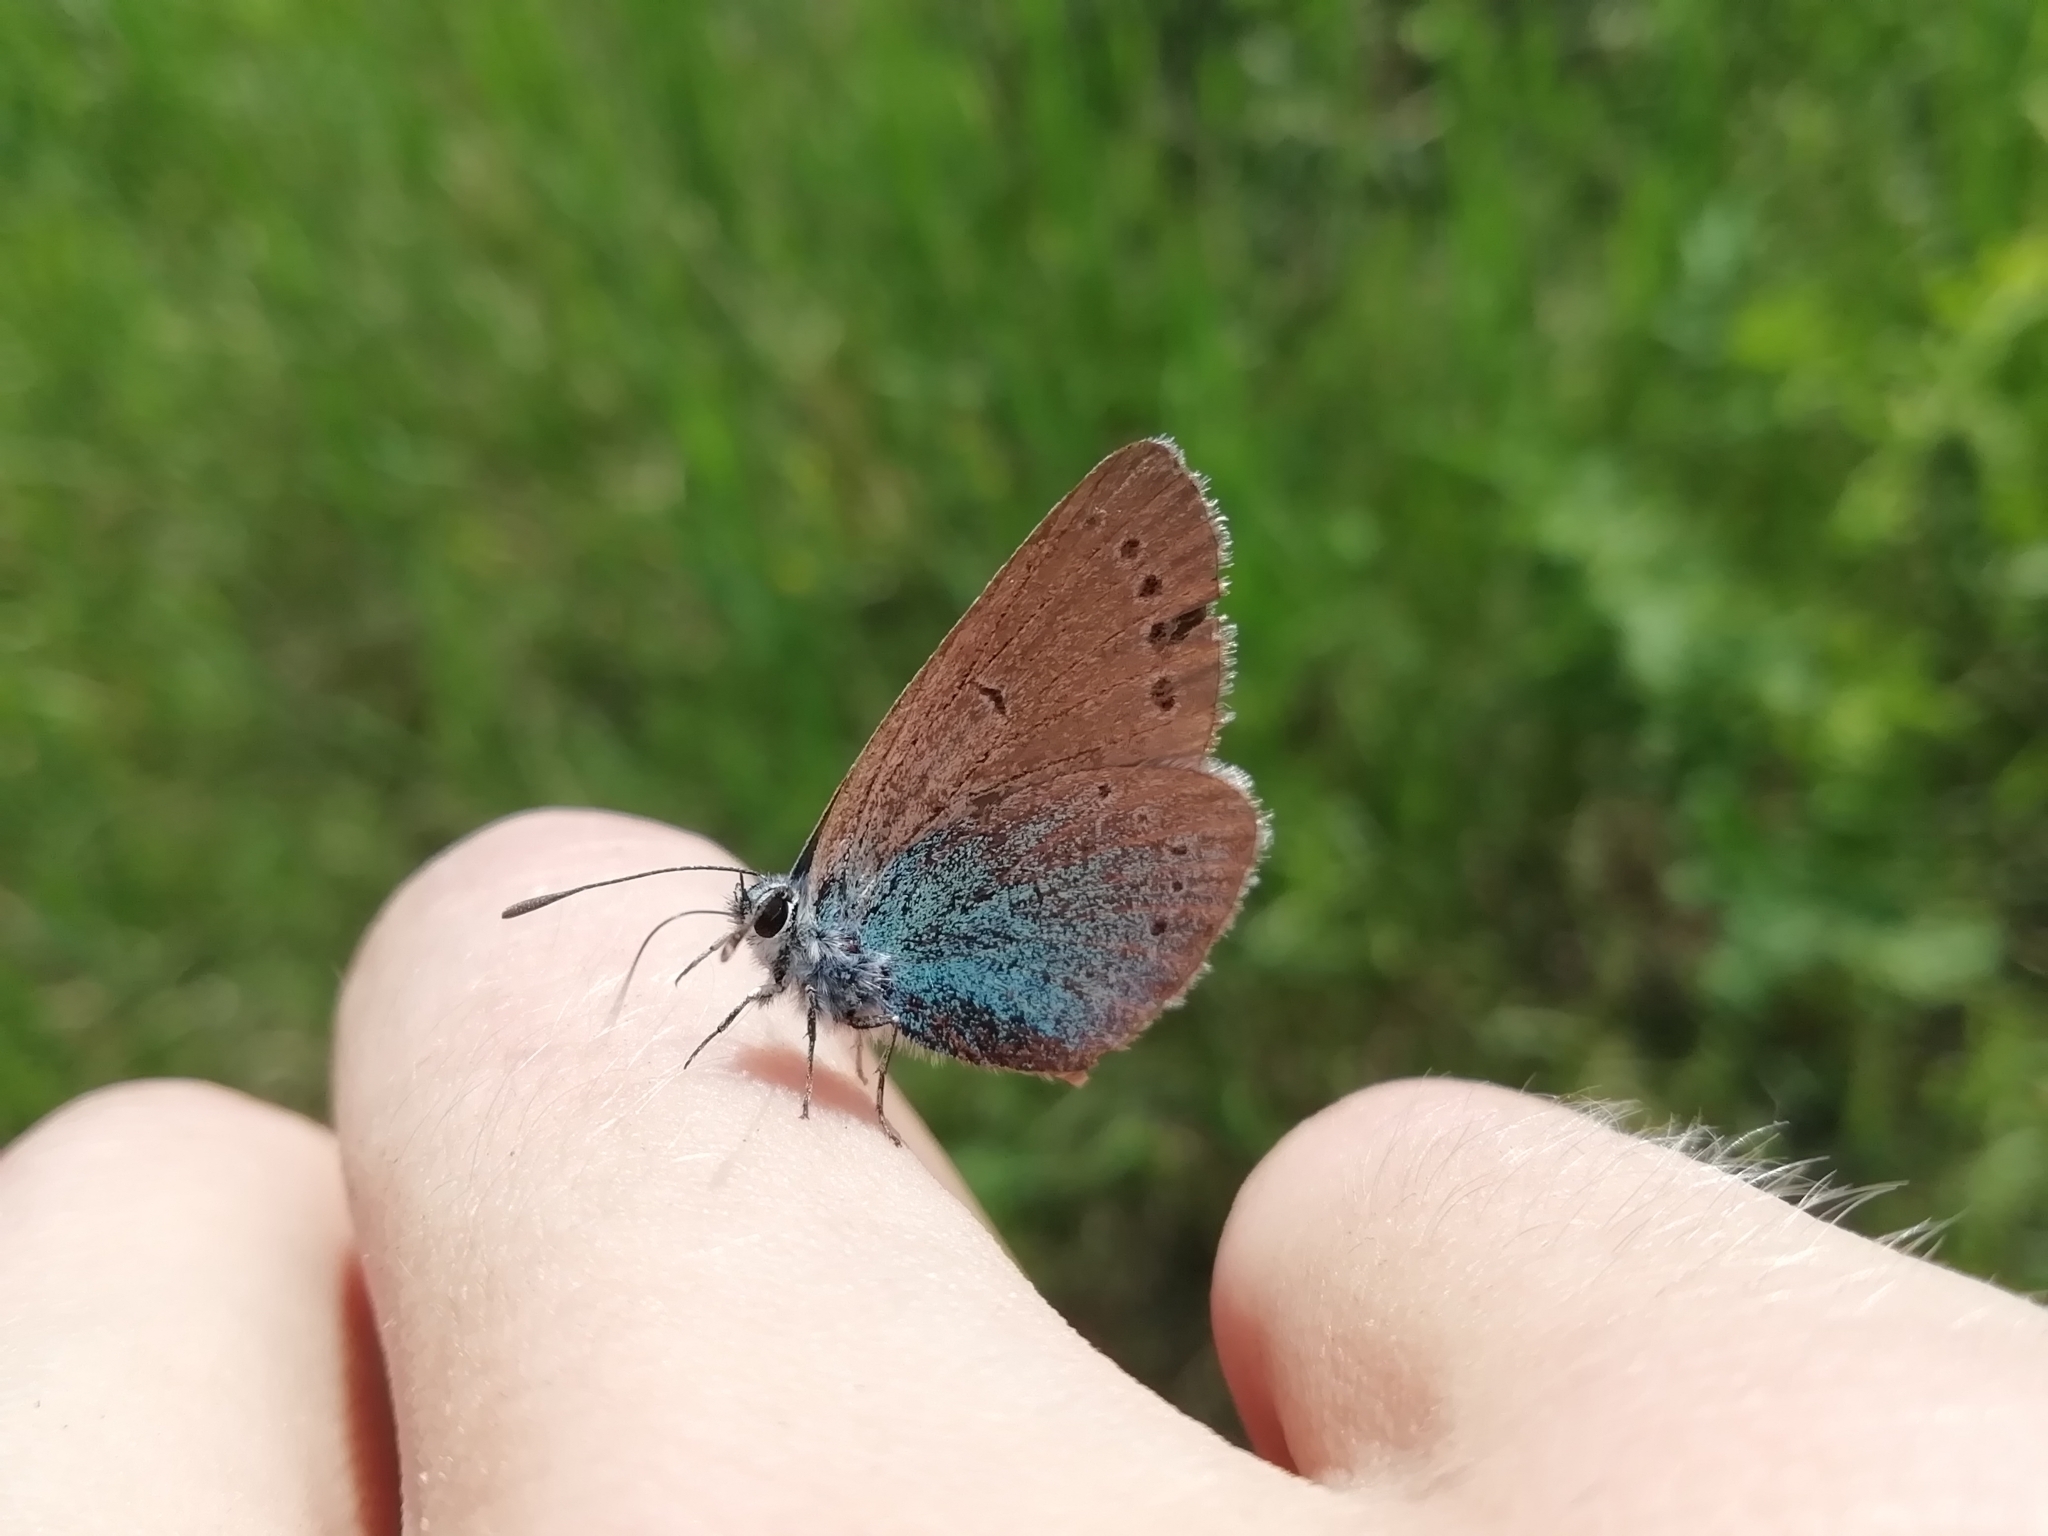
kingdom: Animalia
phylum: Arthropoda
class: Insecta
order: Lepidoptera
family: Lycaenidae
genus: Glaucopsyche
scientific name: Glaucopsyche lycormas
